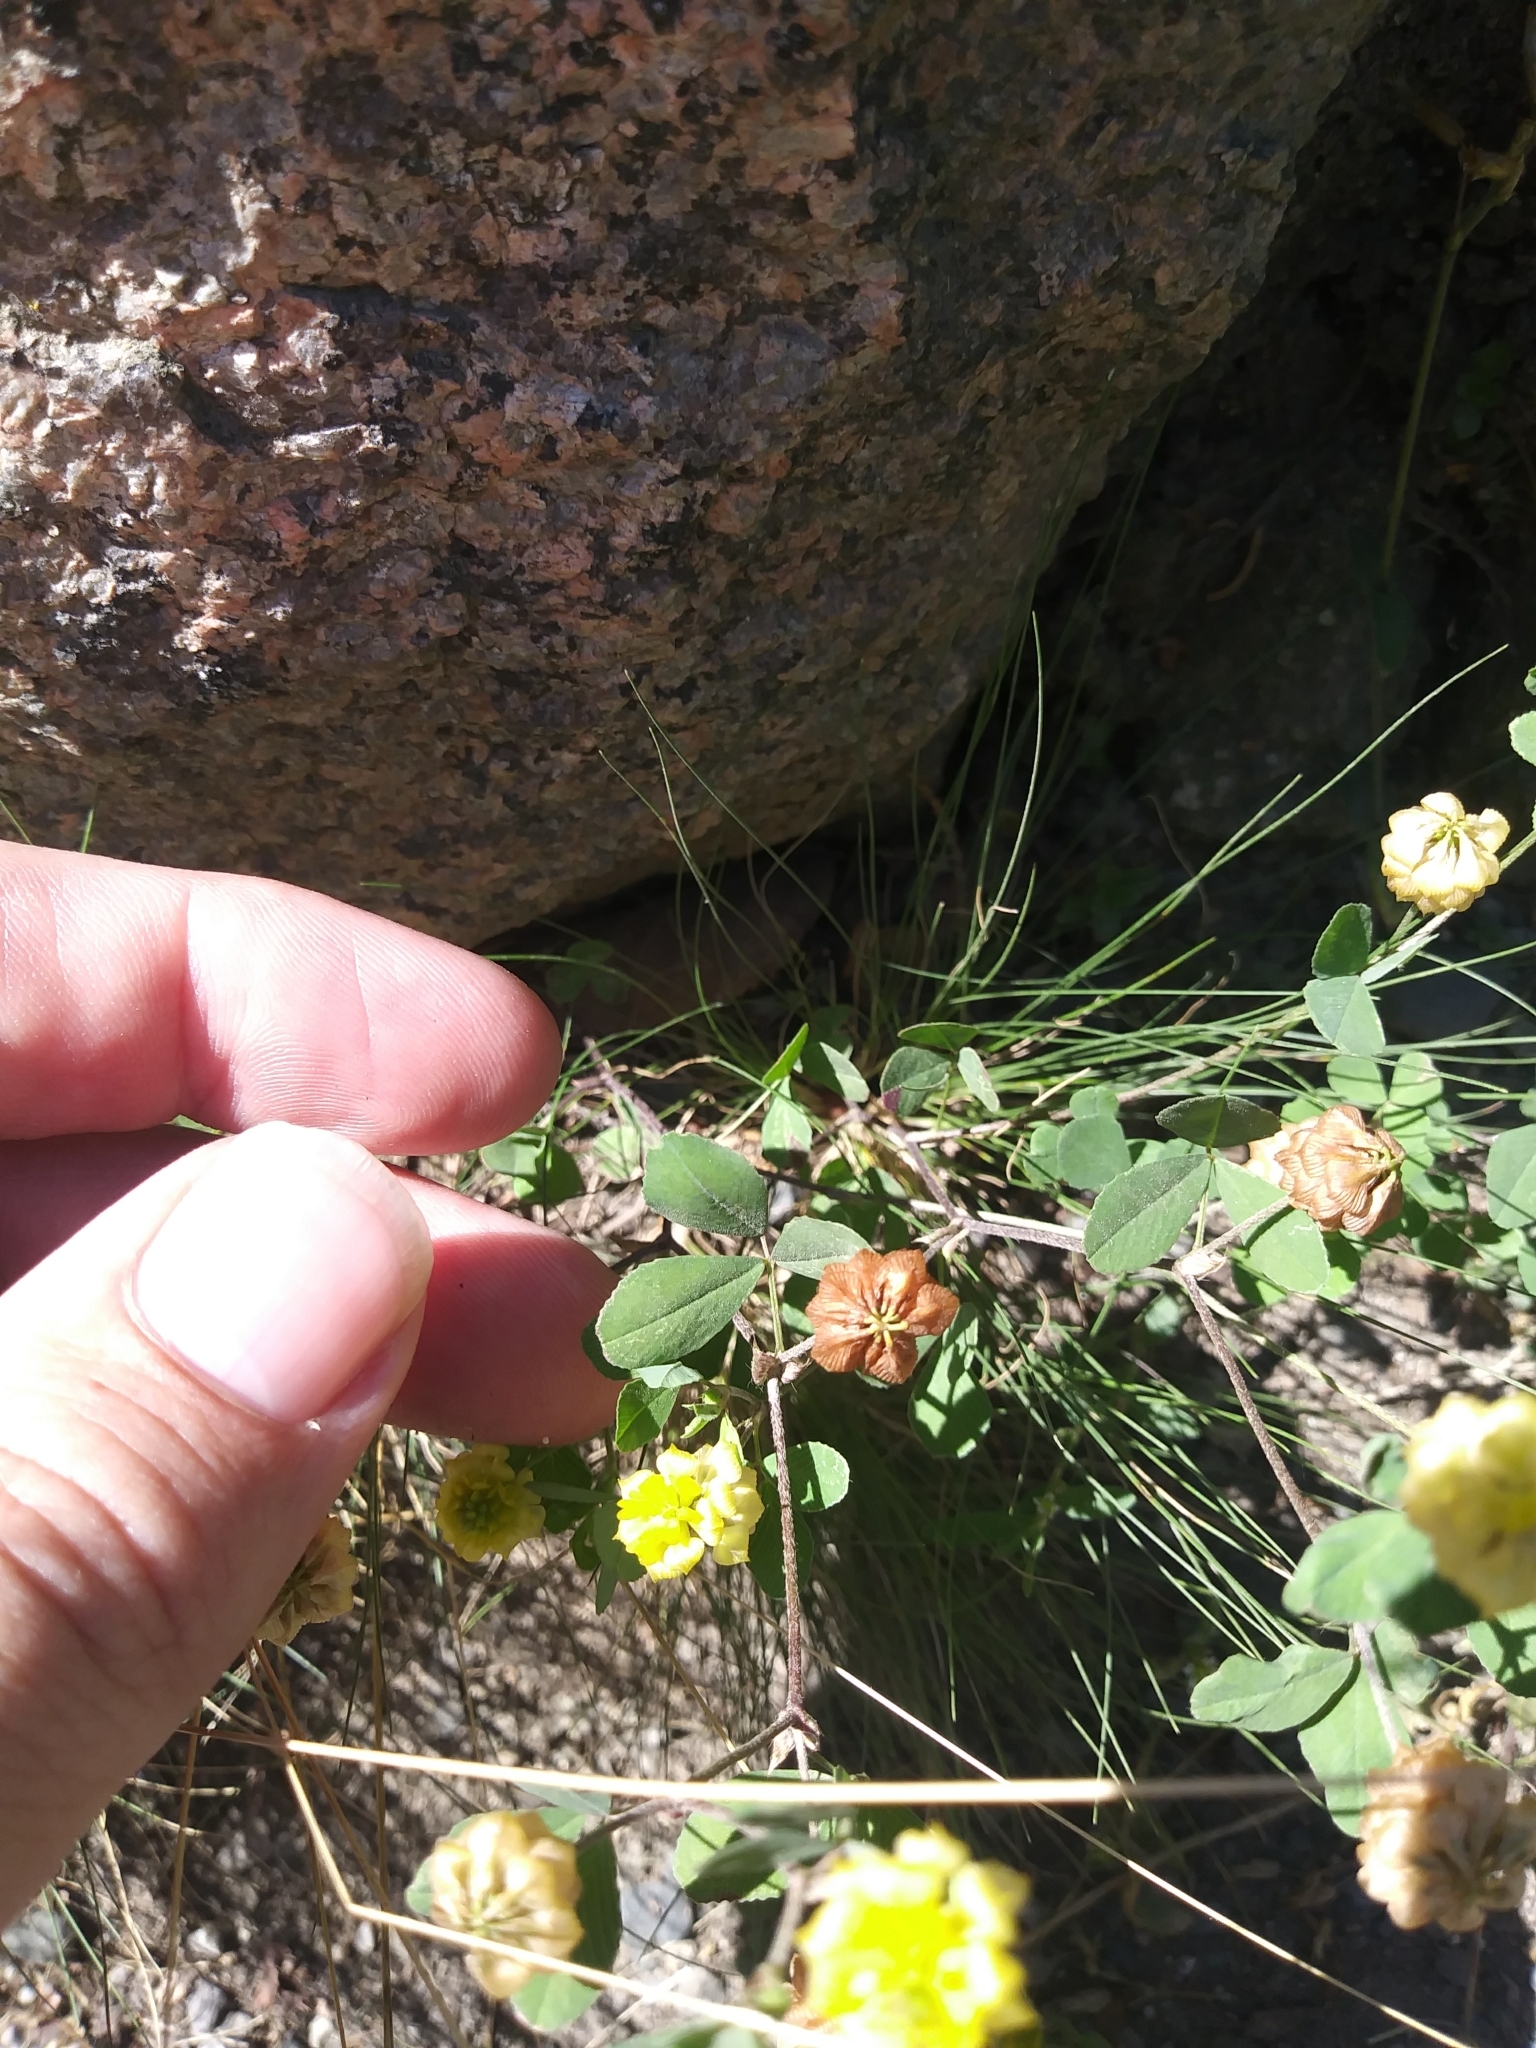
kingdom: Plantae
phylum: Tracheophyta
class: Magnoliopsida
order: Fabales
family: Fabaceae
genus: Trifolium
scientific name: Trifolium campestre
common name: Field clover
